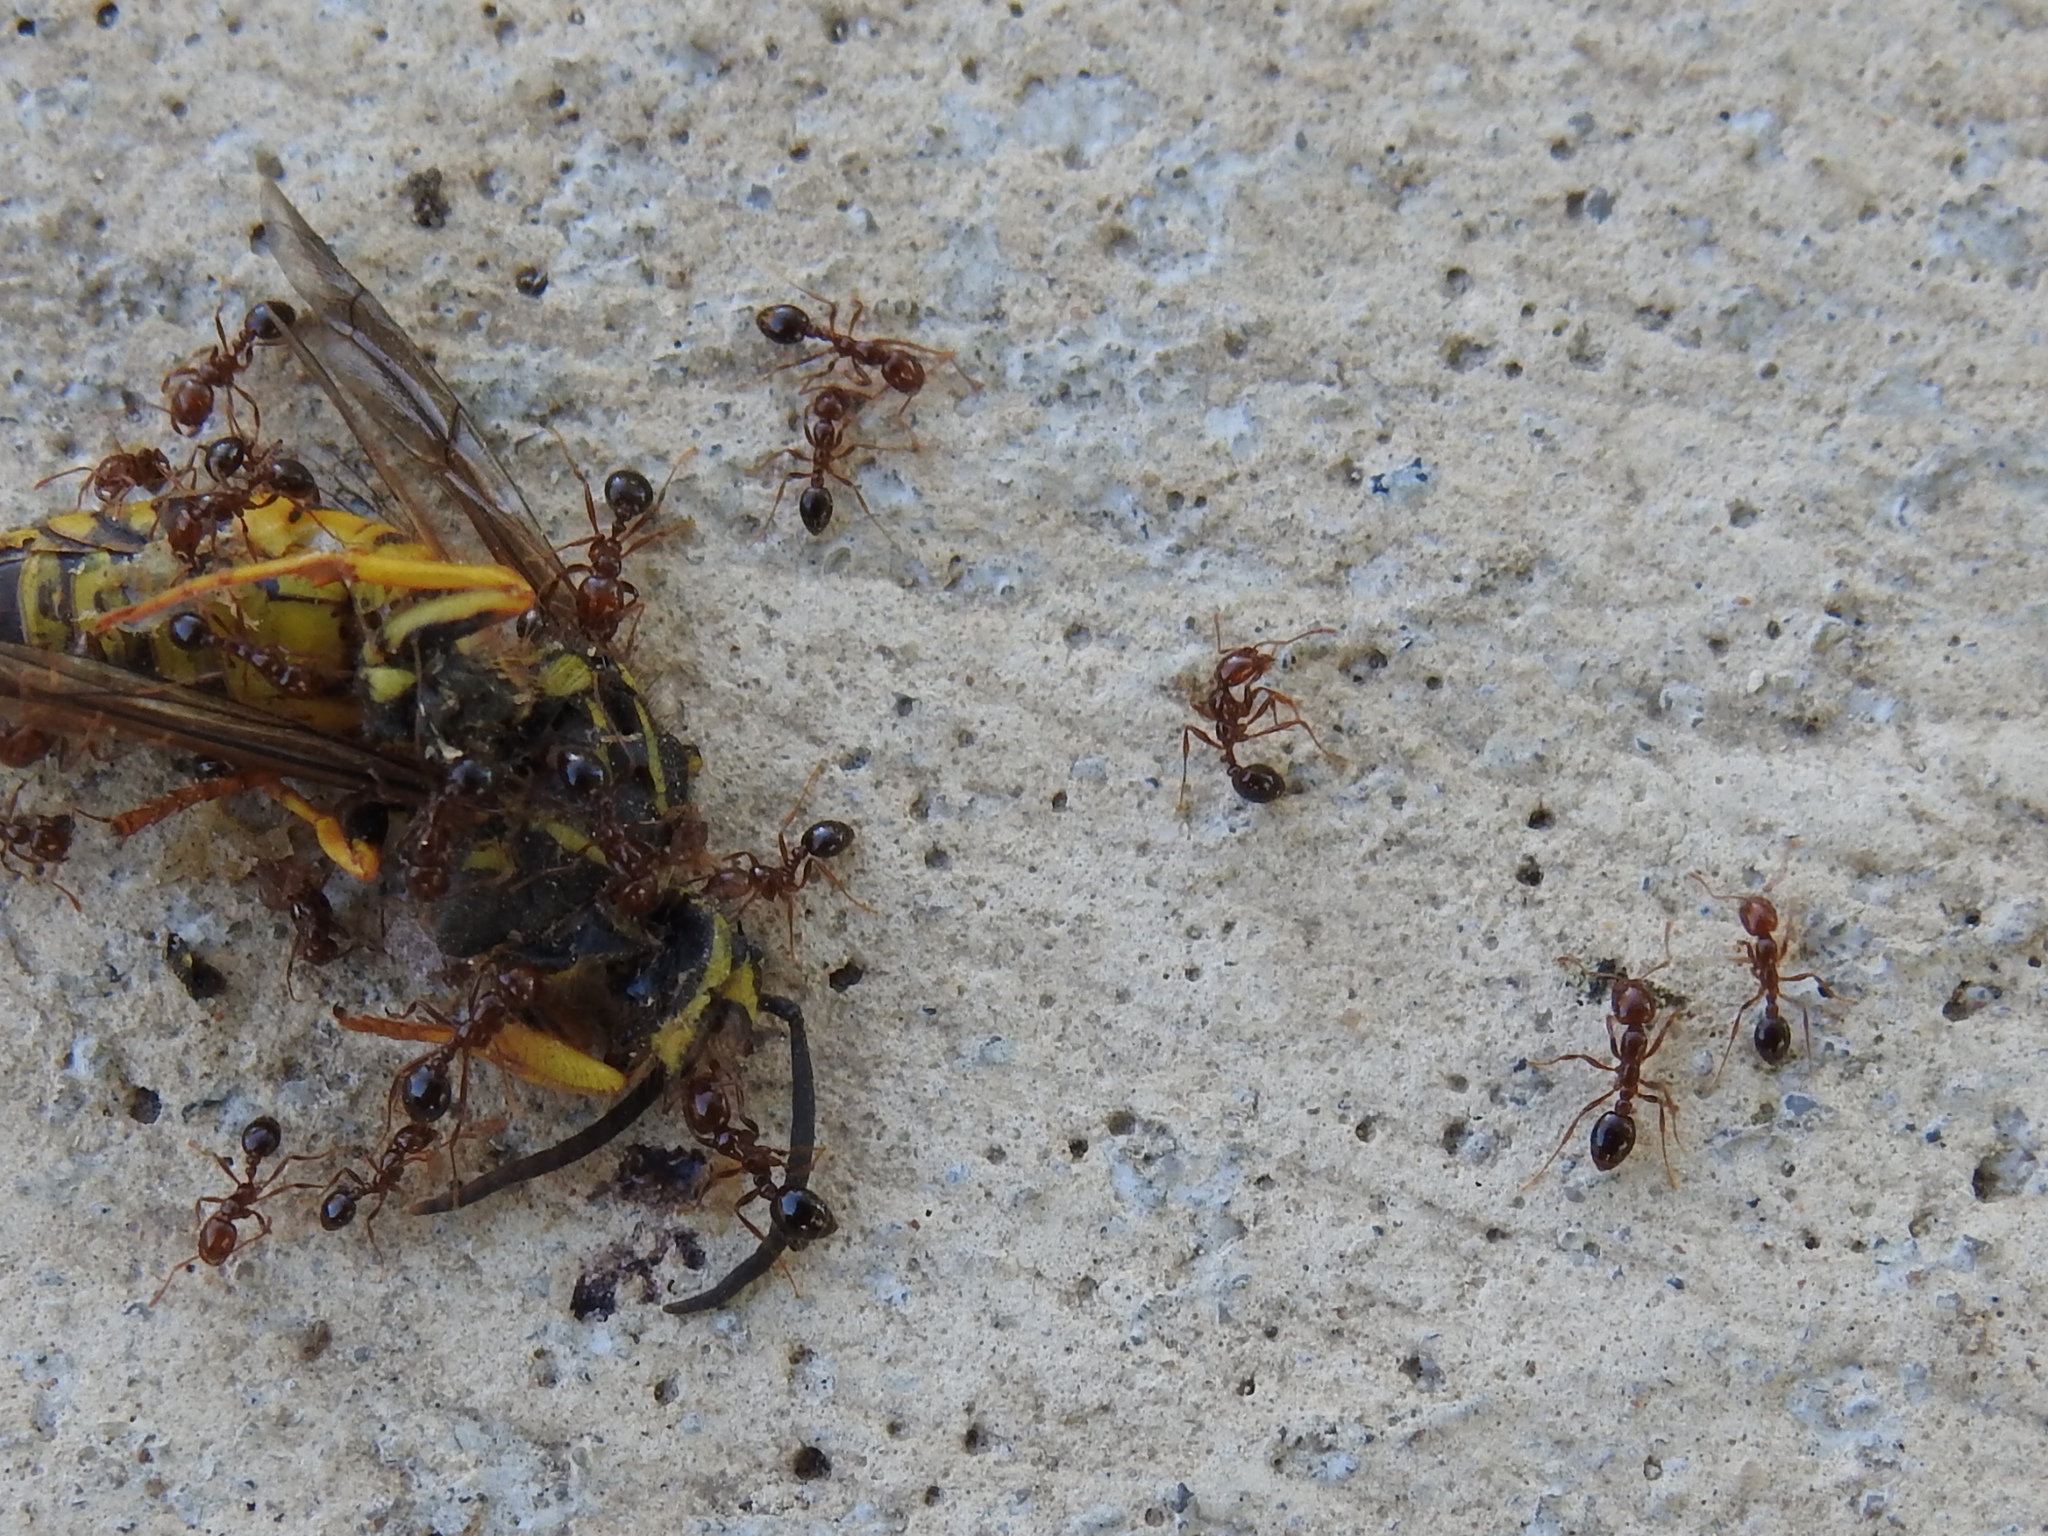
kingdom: Animalia
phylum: Arthropoda
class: Insecta
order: Hymenoptera
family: Formicidae
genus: Solenopsis
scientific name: Solenopsis invicta
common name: Red imported fire ant
